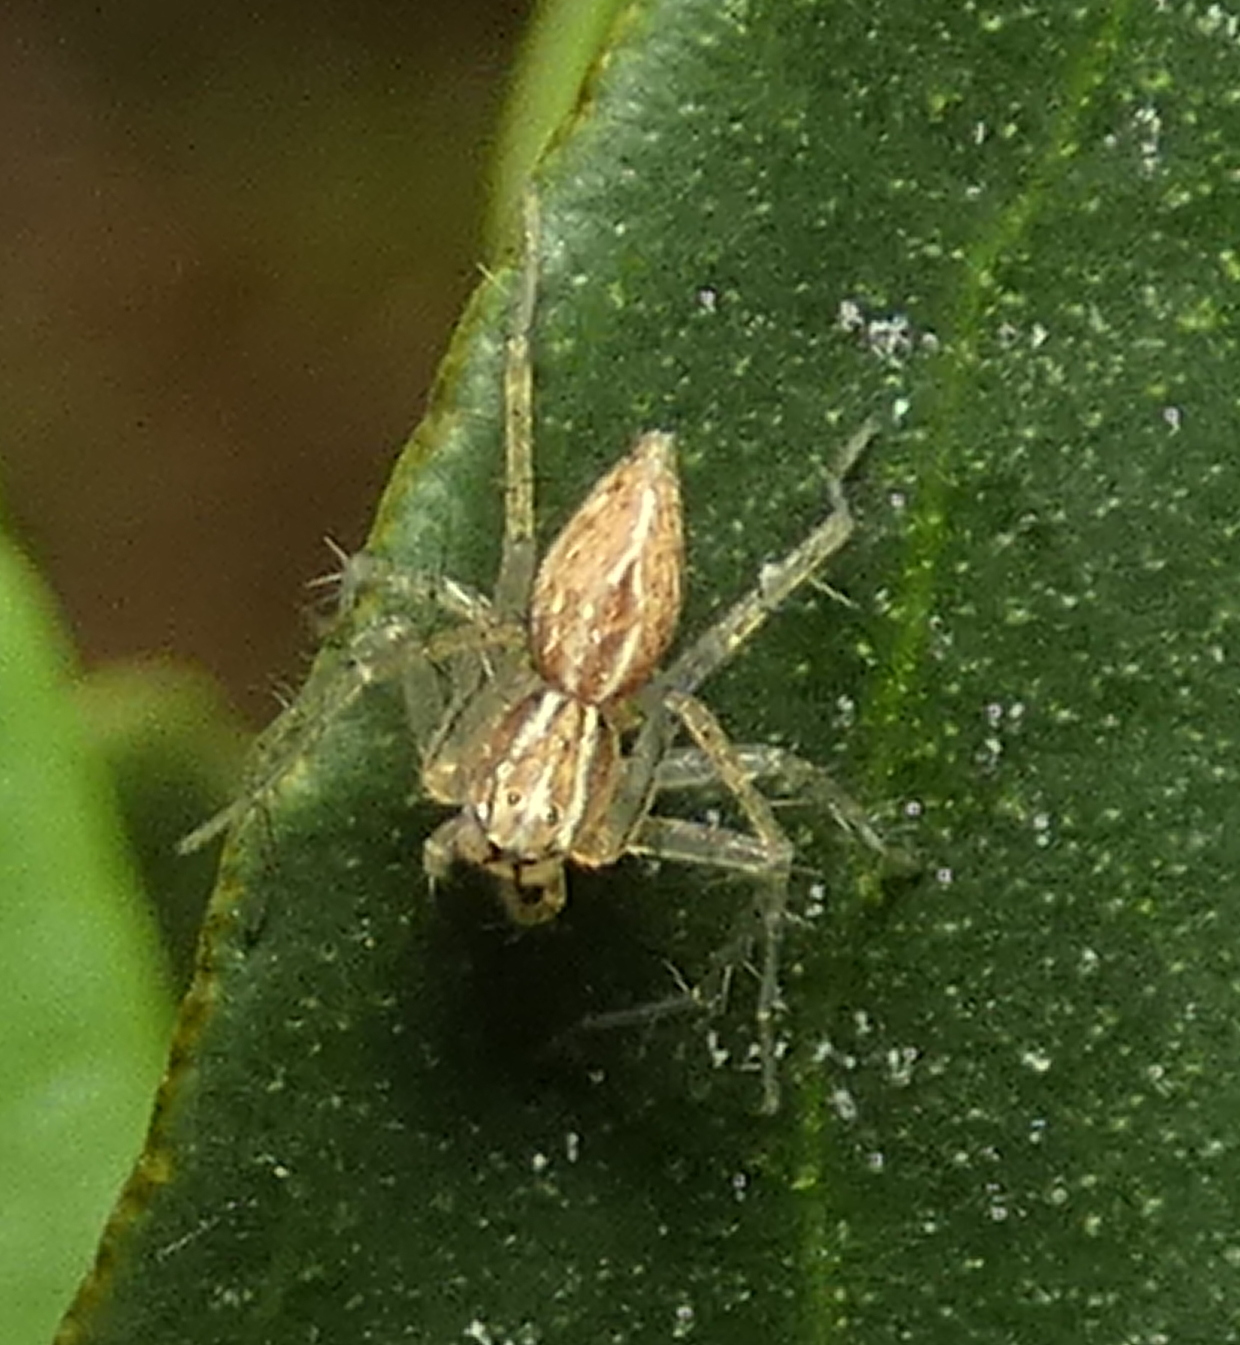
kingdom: Animalia
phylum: Arthropoda
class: Arachnida
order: Araneae
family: Oxyopidae
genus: Oxyopes
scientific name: Oxyopes salticus
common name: Lynx spiders
